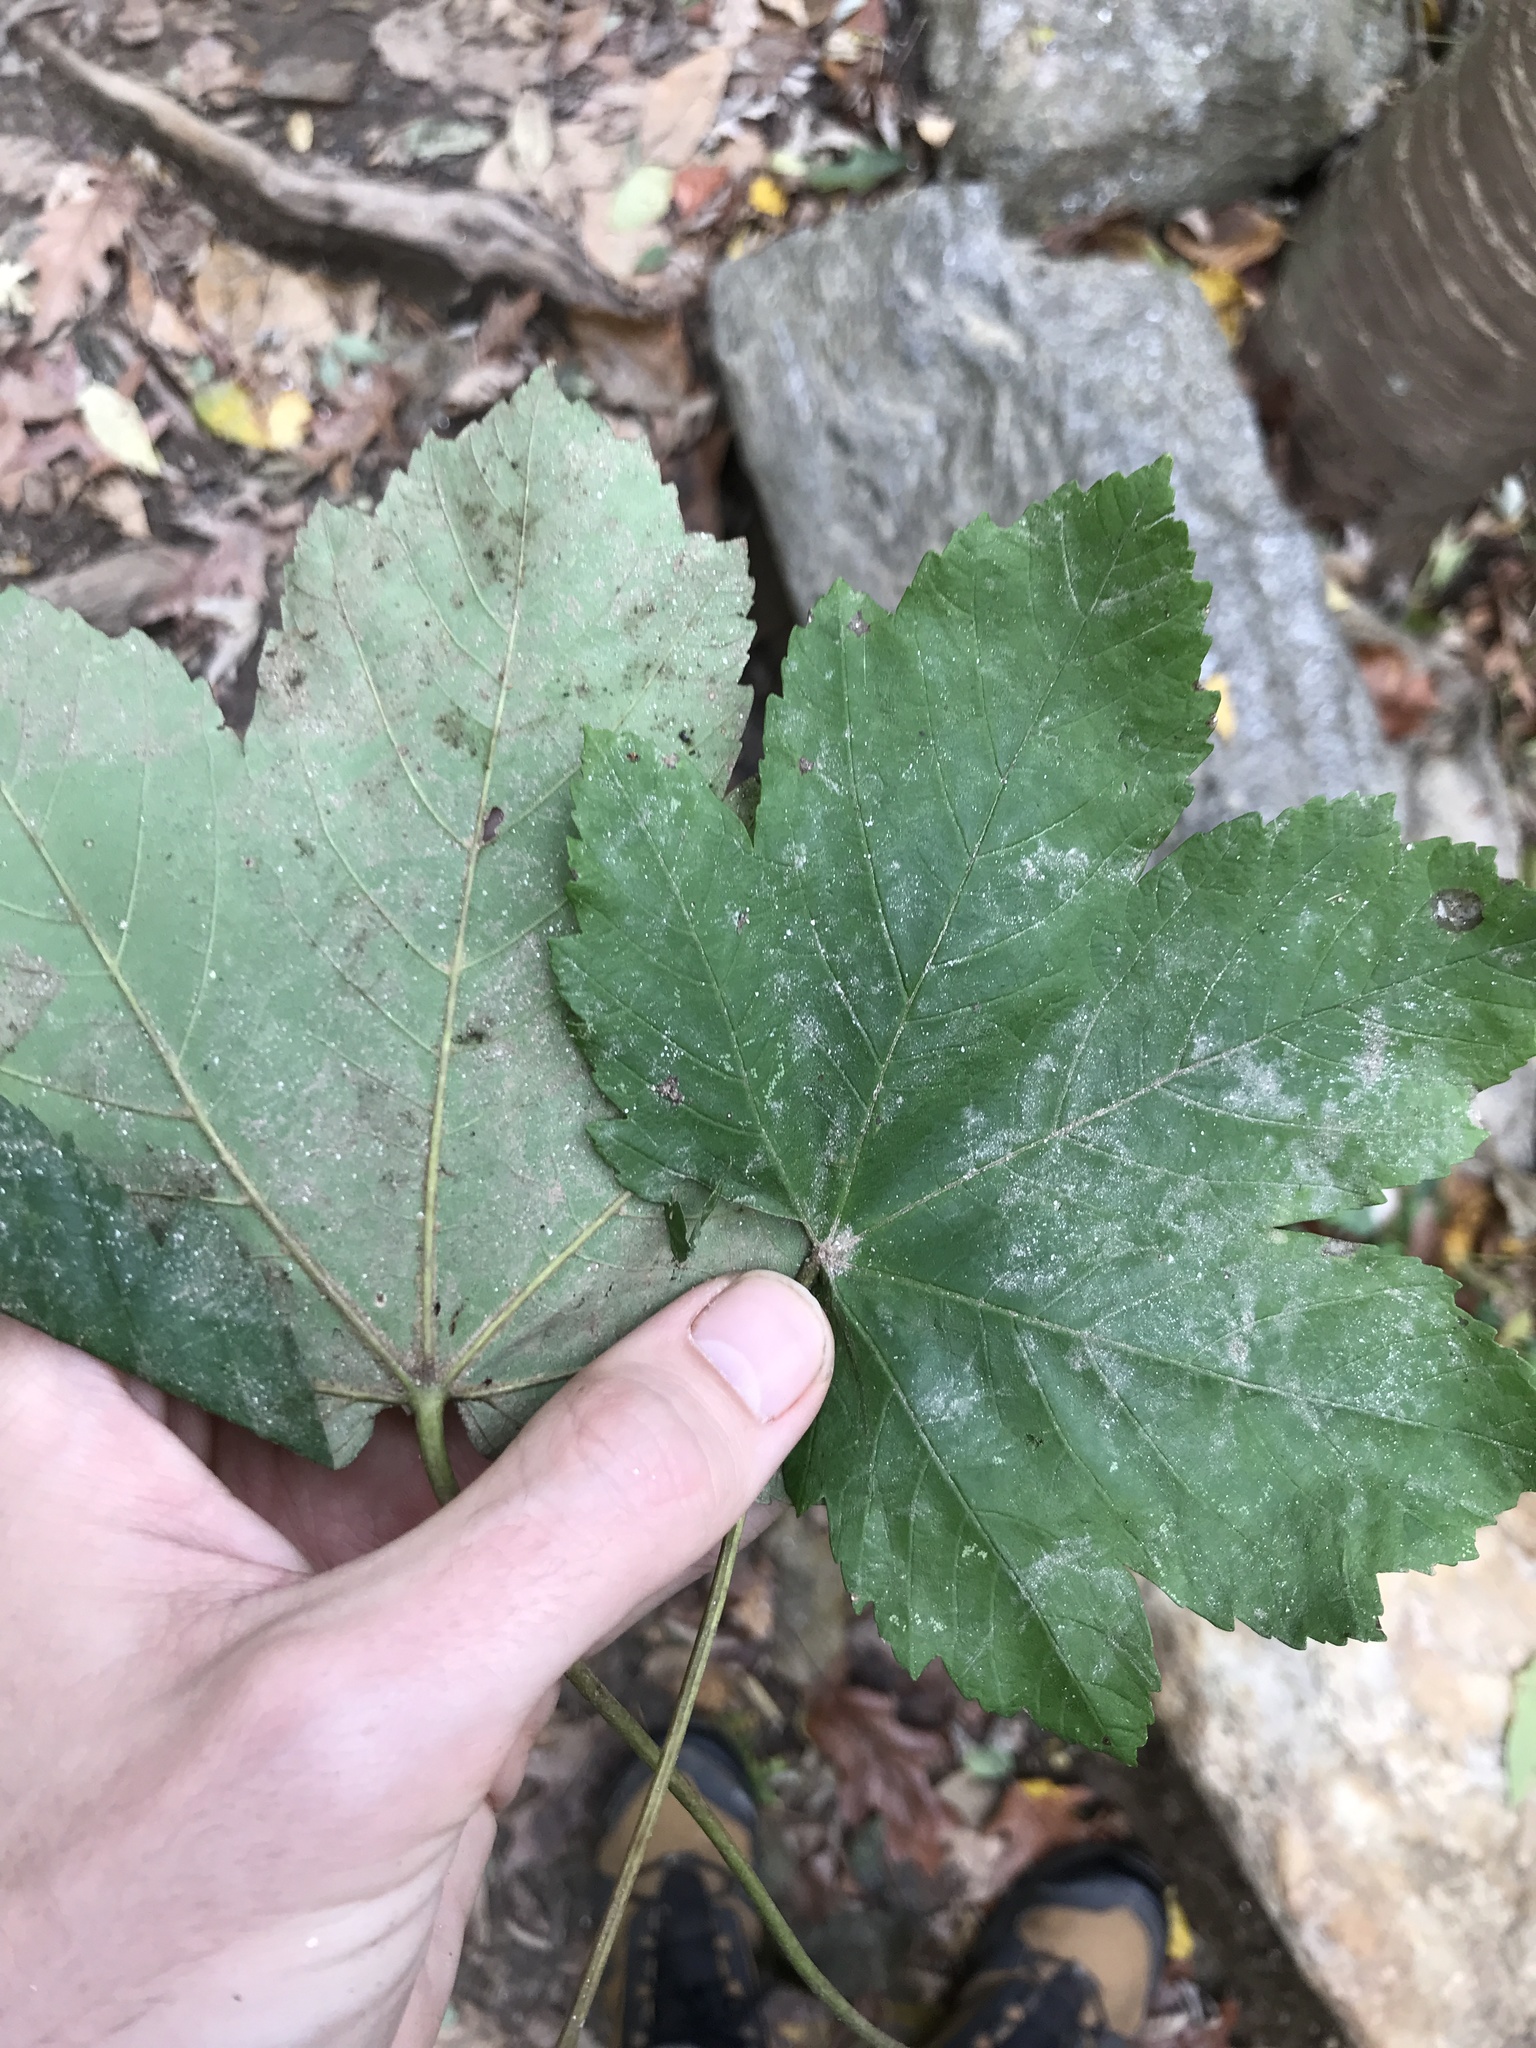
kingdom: Plantae
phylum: Tracheophyta
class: Magnoliopsida
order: Sapindales
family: Sapindaceae
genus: Acer
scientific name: Acer pseudoplatanus
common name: Sycamore
